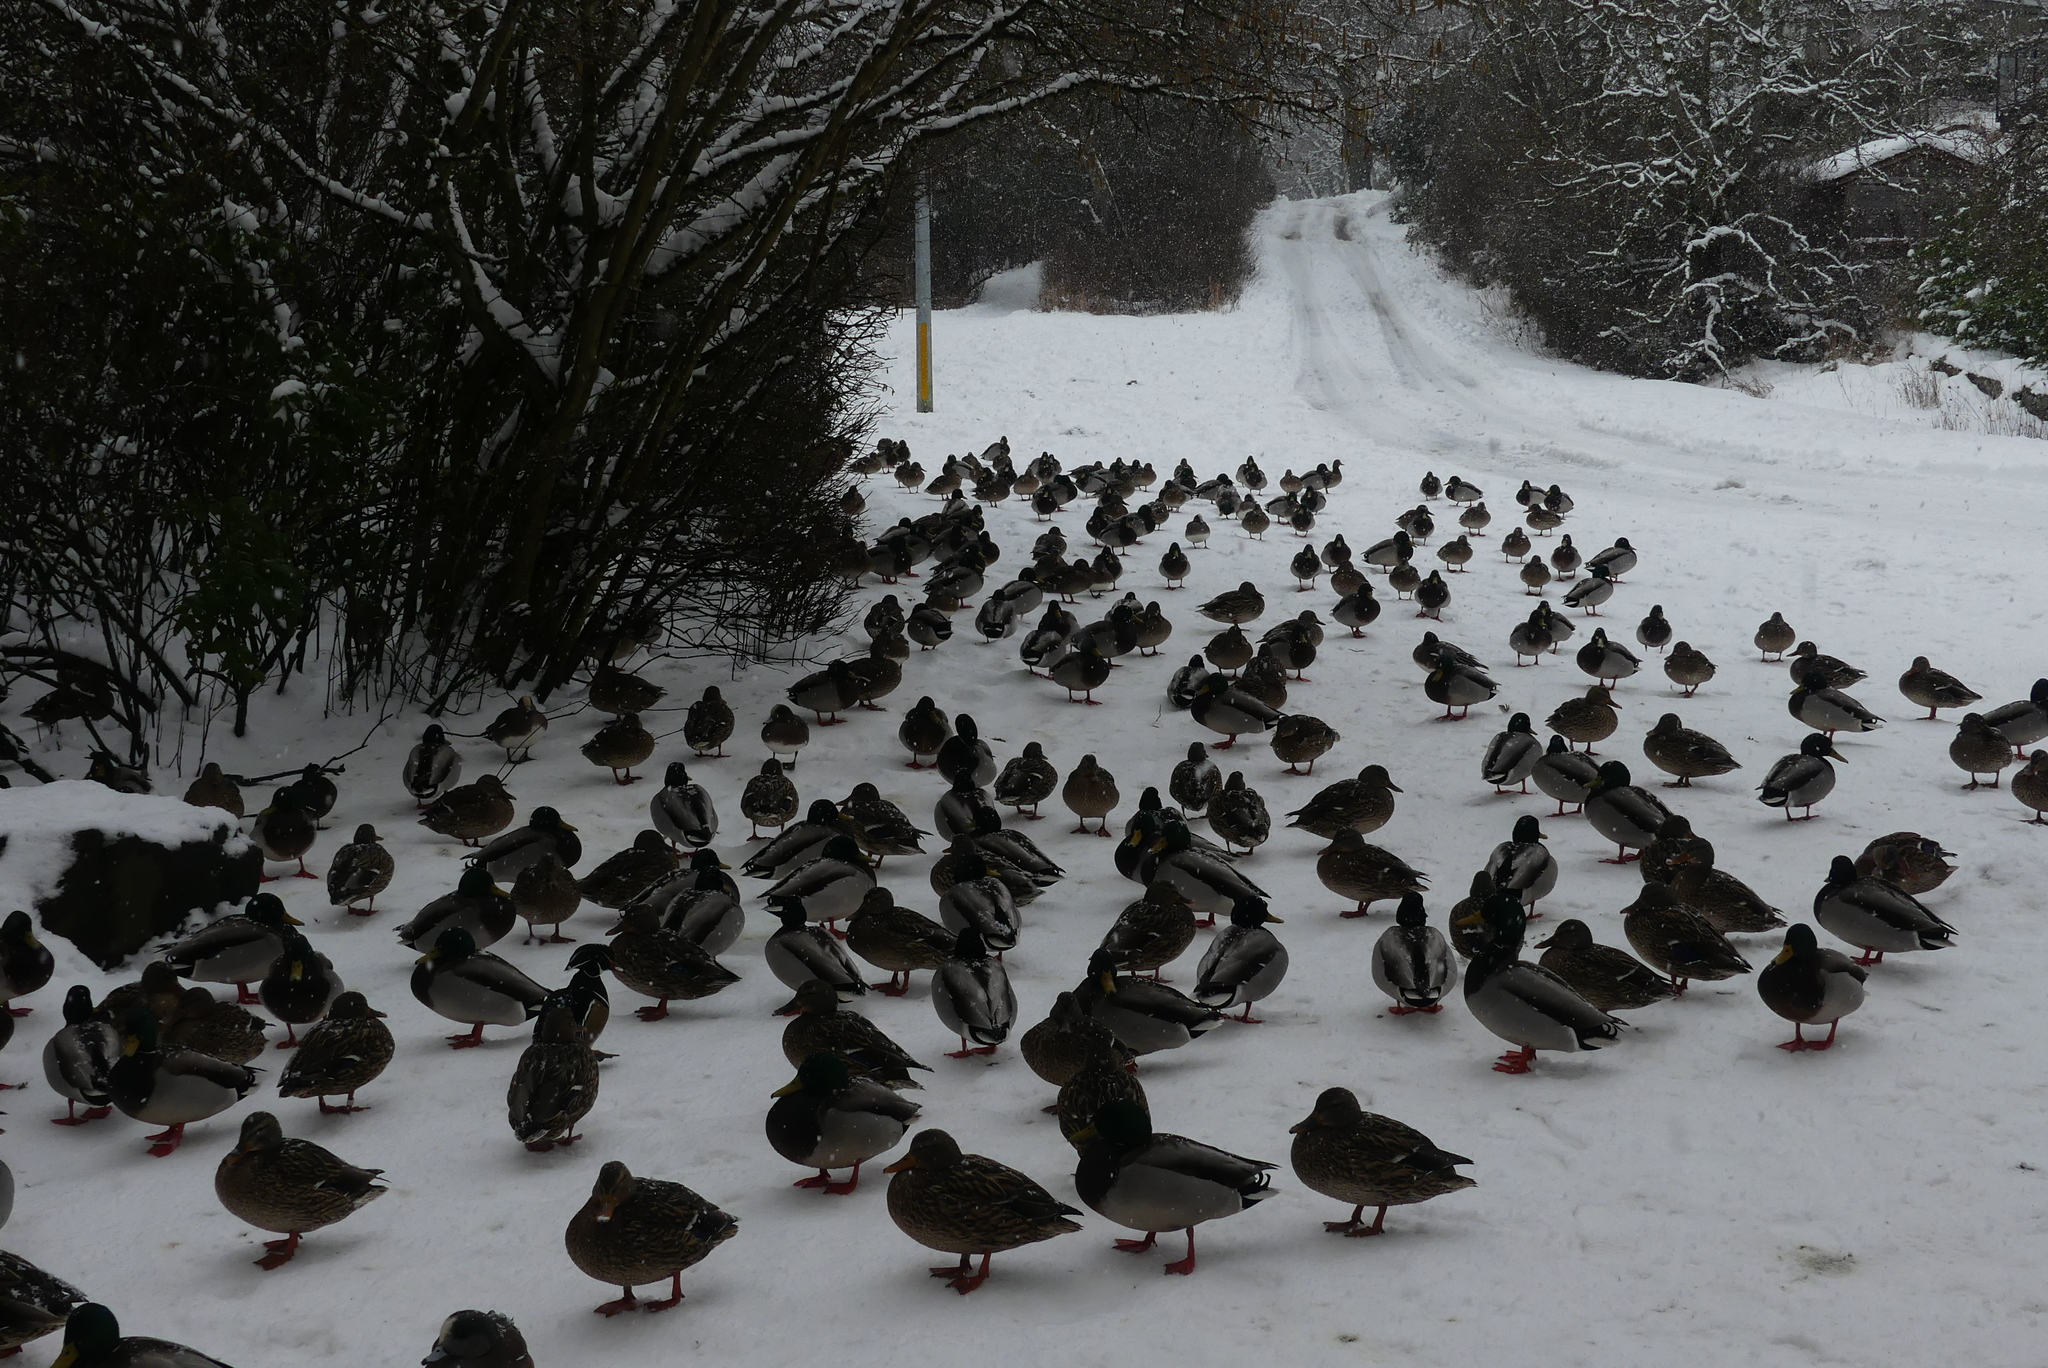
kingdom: Animalia
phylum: Chordata
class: Aves
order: Anseriformes
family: Anatidae
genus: Anas
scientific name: Anas platyrhynchos
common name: Mallard
